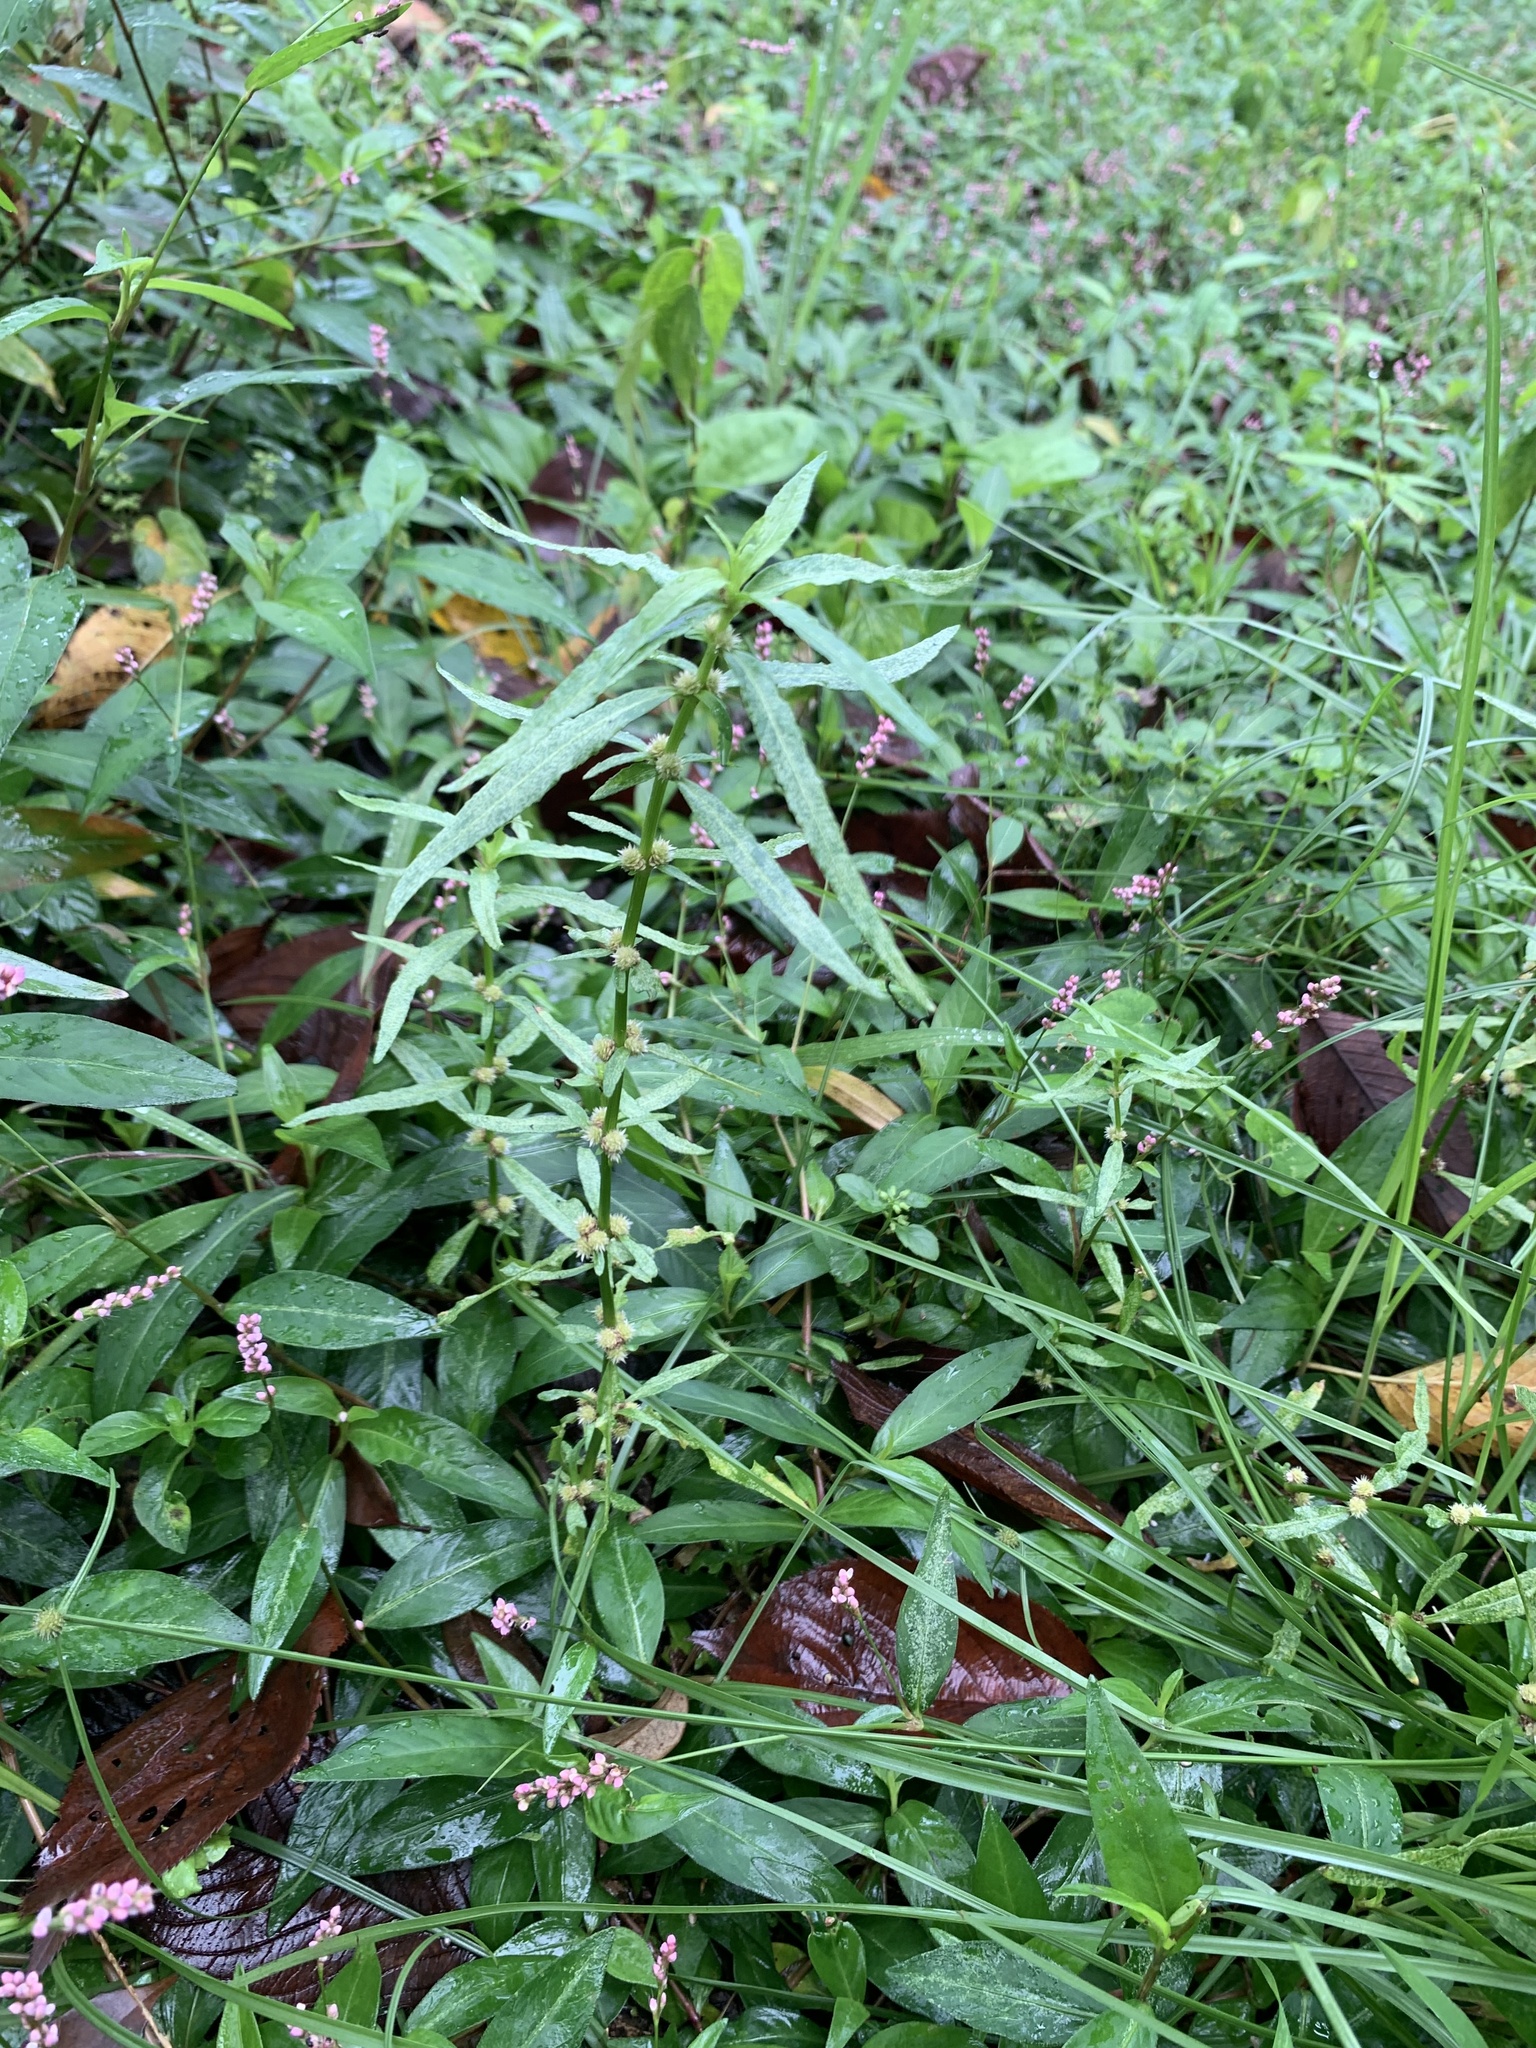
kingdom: Plantae
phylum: Tracheophyta
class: Magnoliopsida
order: Caryophyllales
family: Amaranthaceae
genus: Alternanthera
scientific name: Alternanthera denticulata
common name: Lesser joyweed
